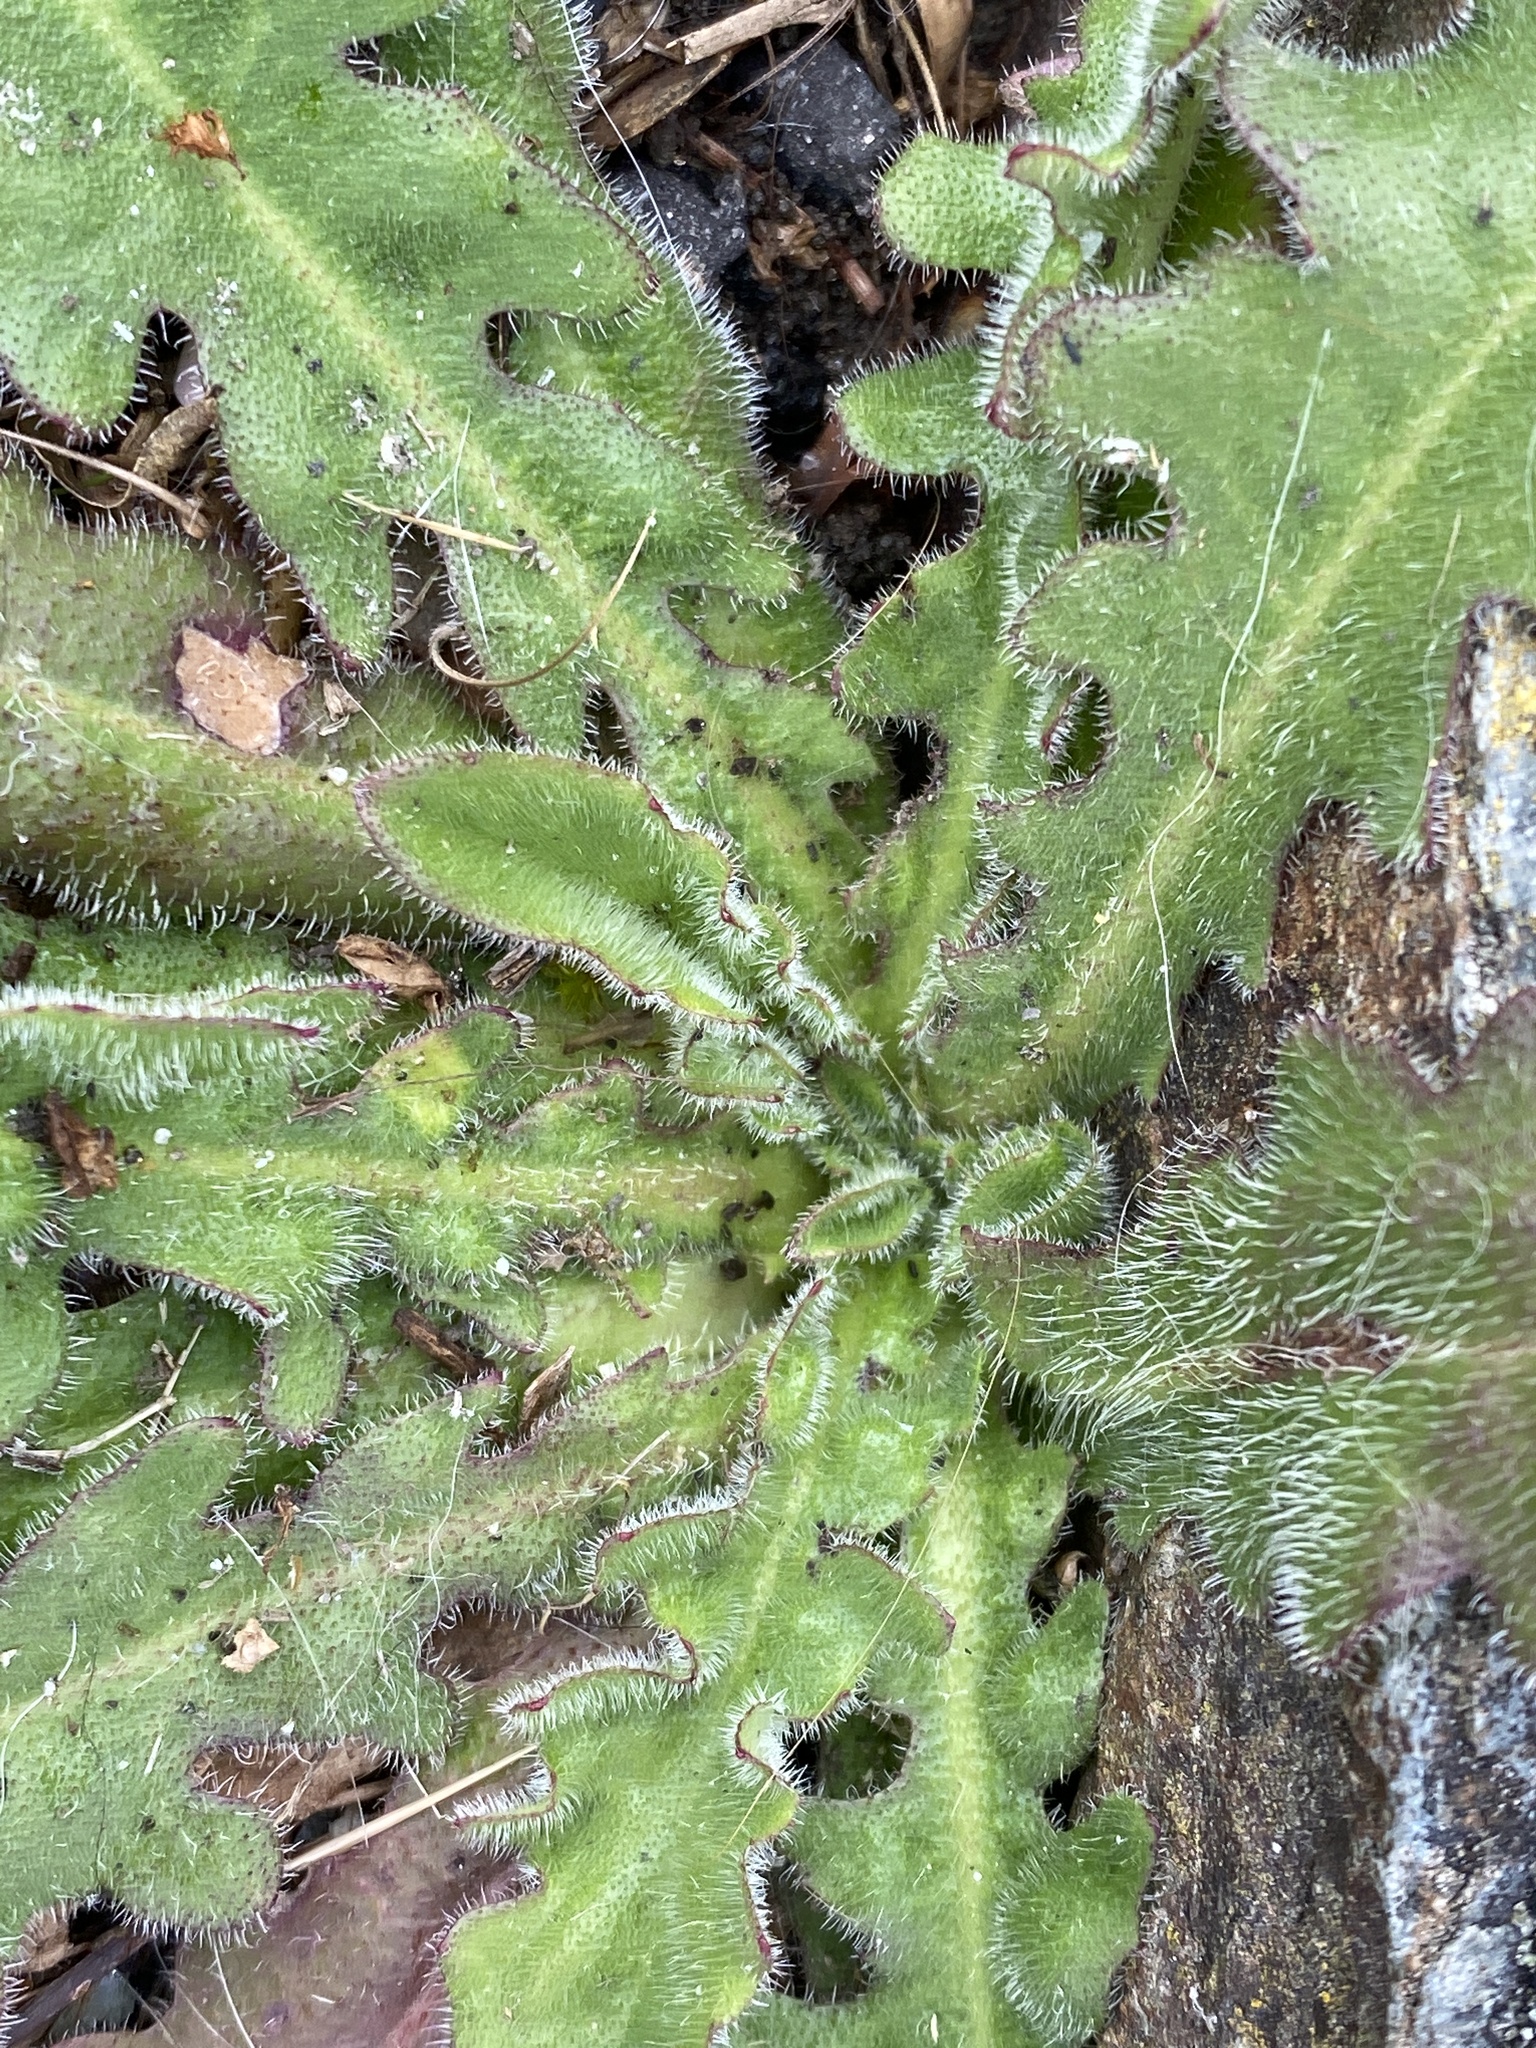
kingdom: Plantae
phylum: Tracheophyta
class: Magnoliopsida
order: Asterales
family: Asteraceae
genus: Hypochaeris
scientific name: Hypochaeris radicata
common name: Flatweed
